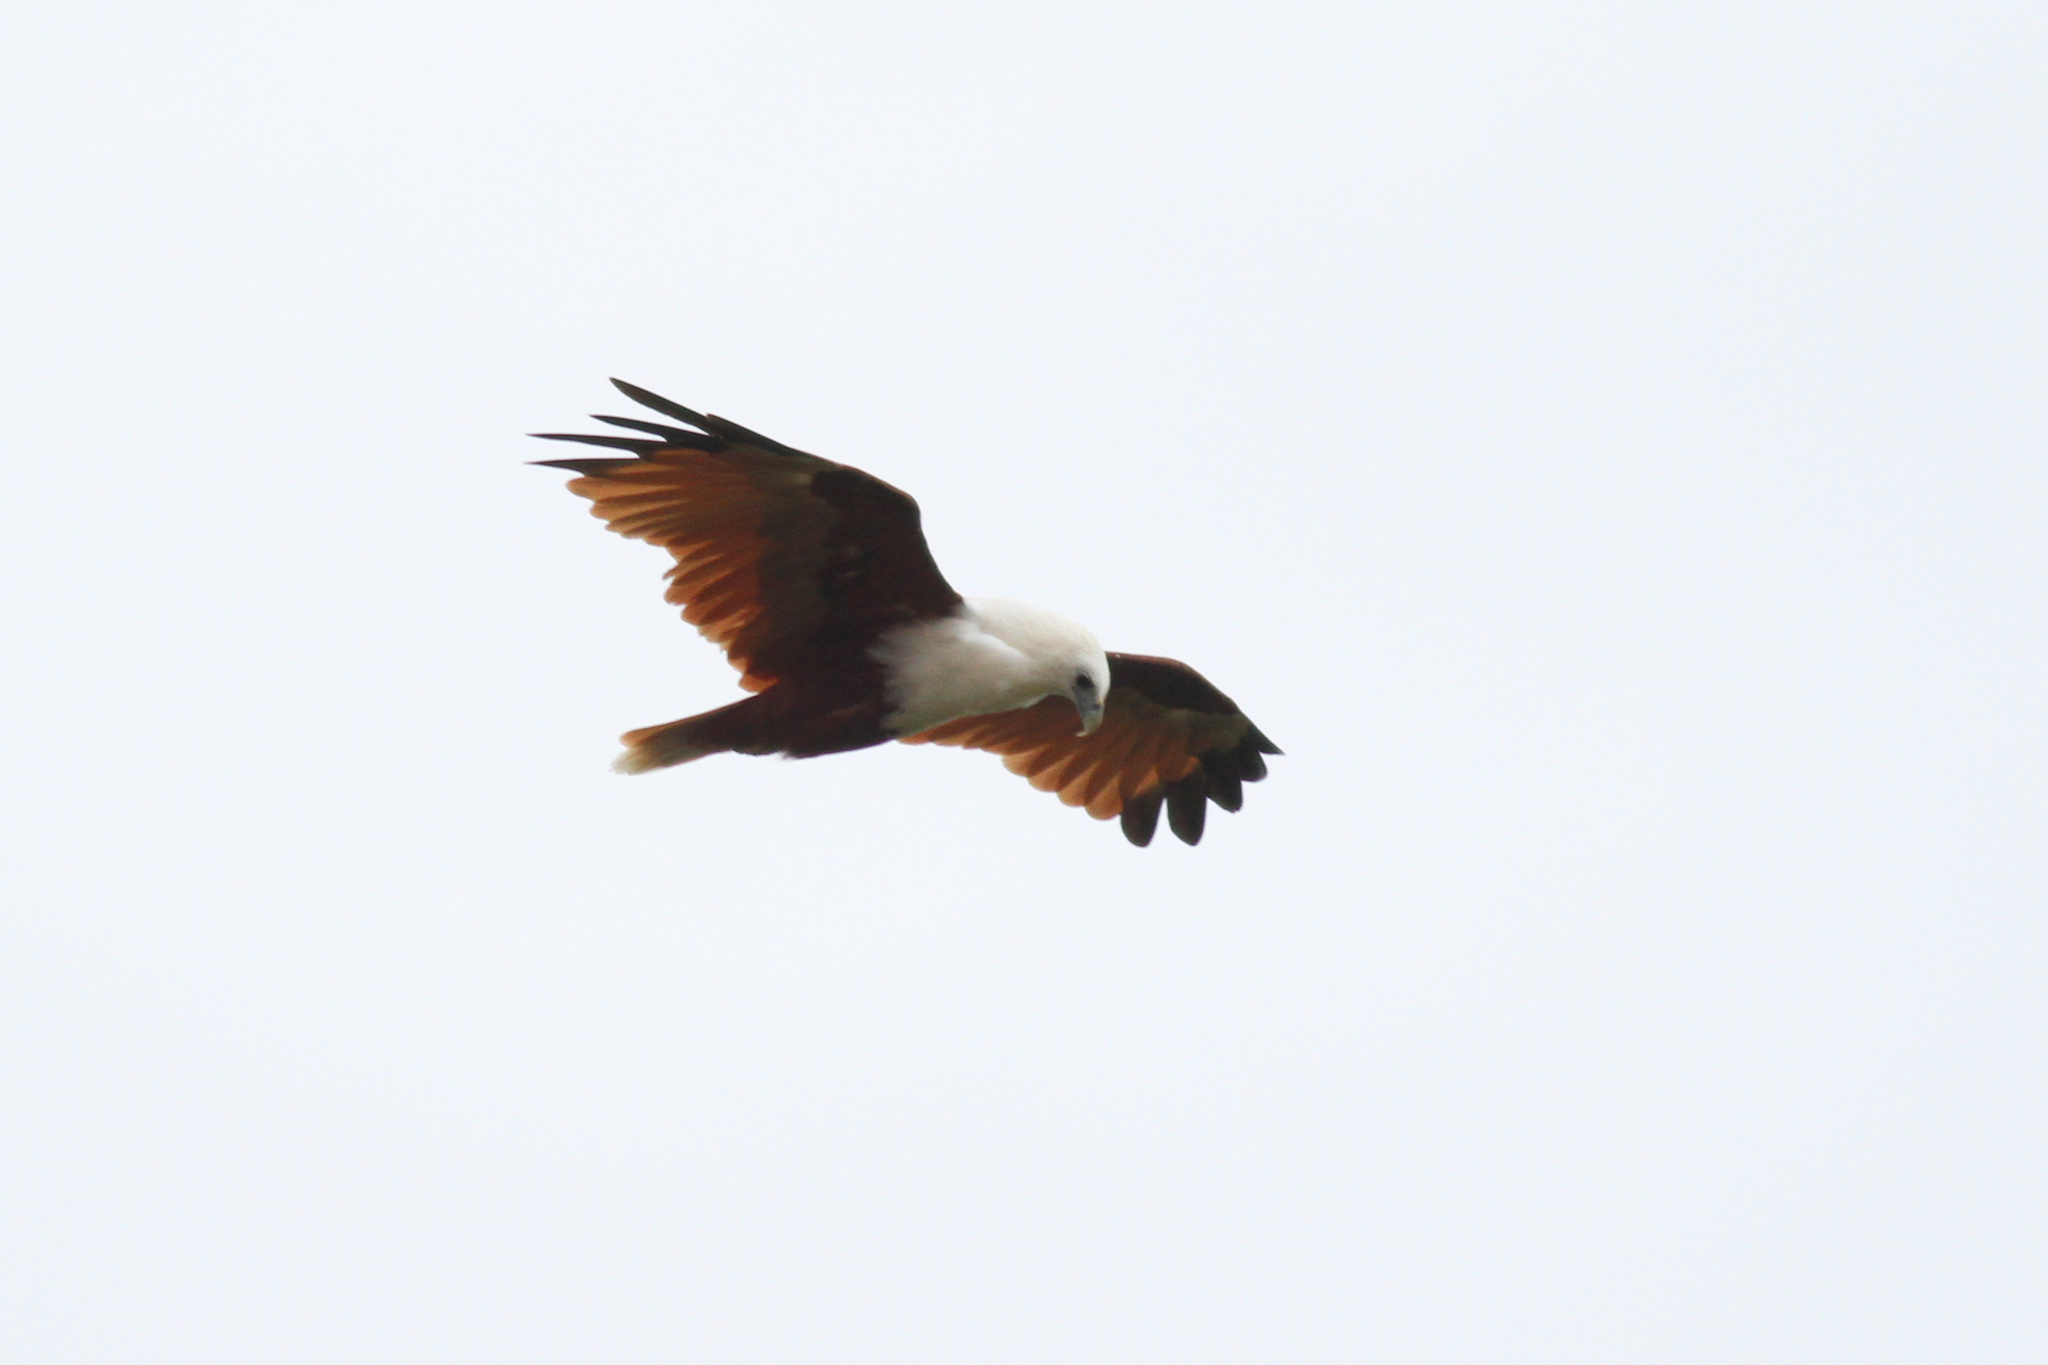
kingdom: Animalia
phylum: Chordata
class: Aves
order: Accipitriformes
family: Accipitridae
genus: Haliastur
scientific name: Haliastur indus
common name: Brahminy kite
